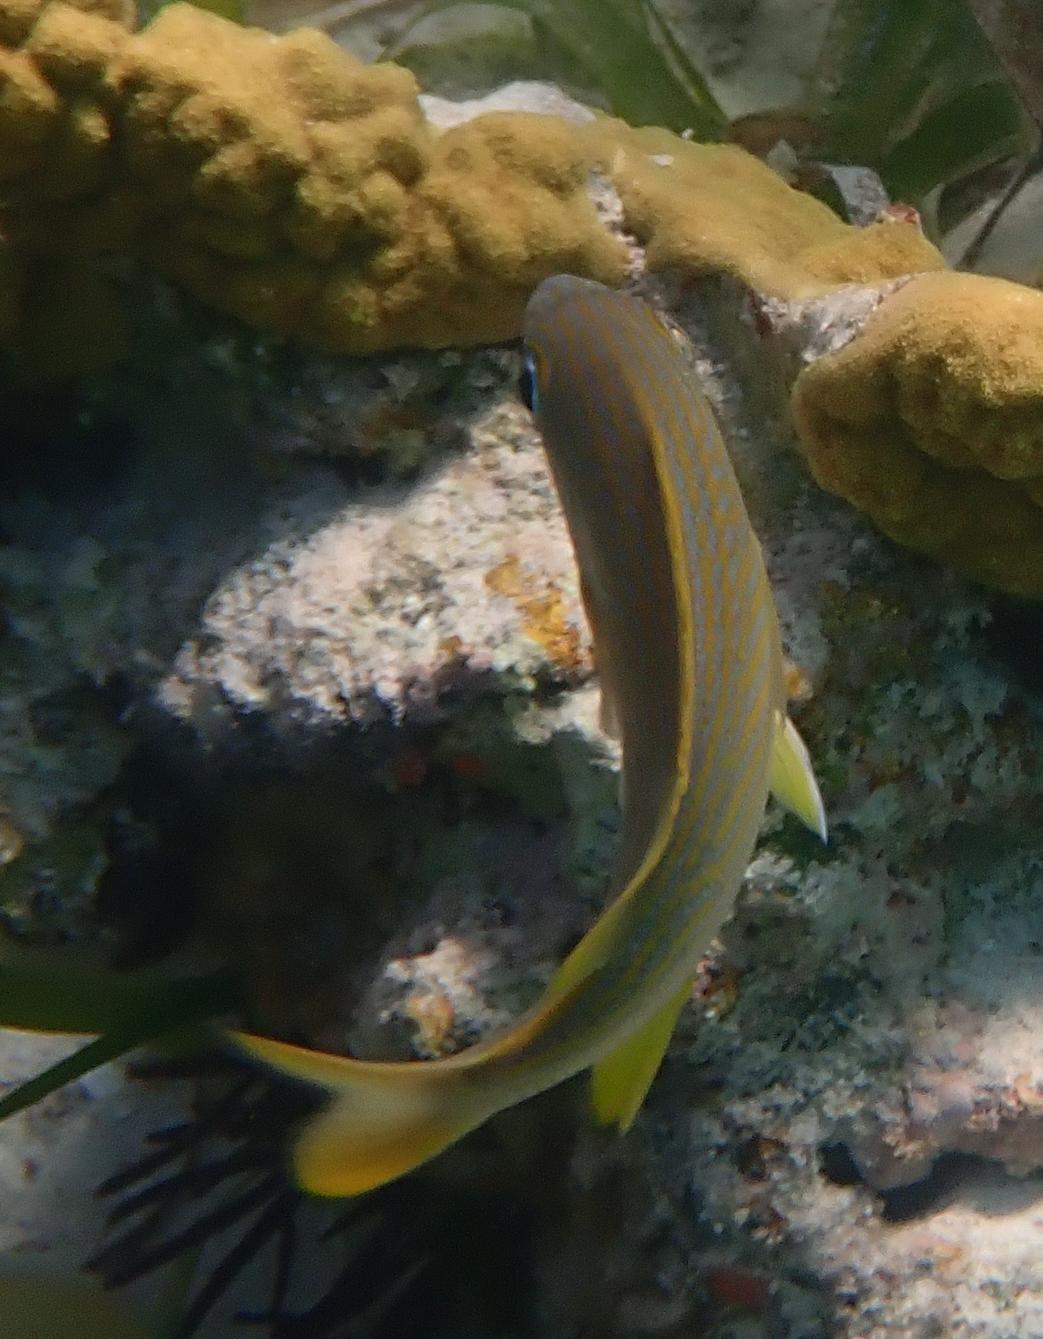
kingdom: Animalia
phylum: Chordata
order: Perciformes
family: Haemulidae
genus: Haemulon
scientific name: Haemulon flavolineatum
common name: French grunt
